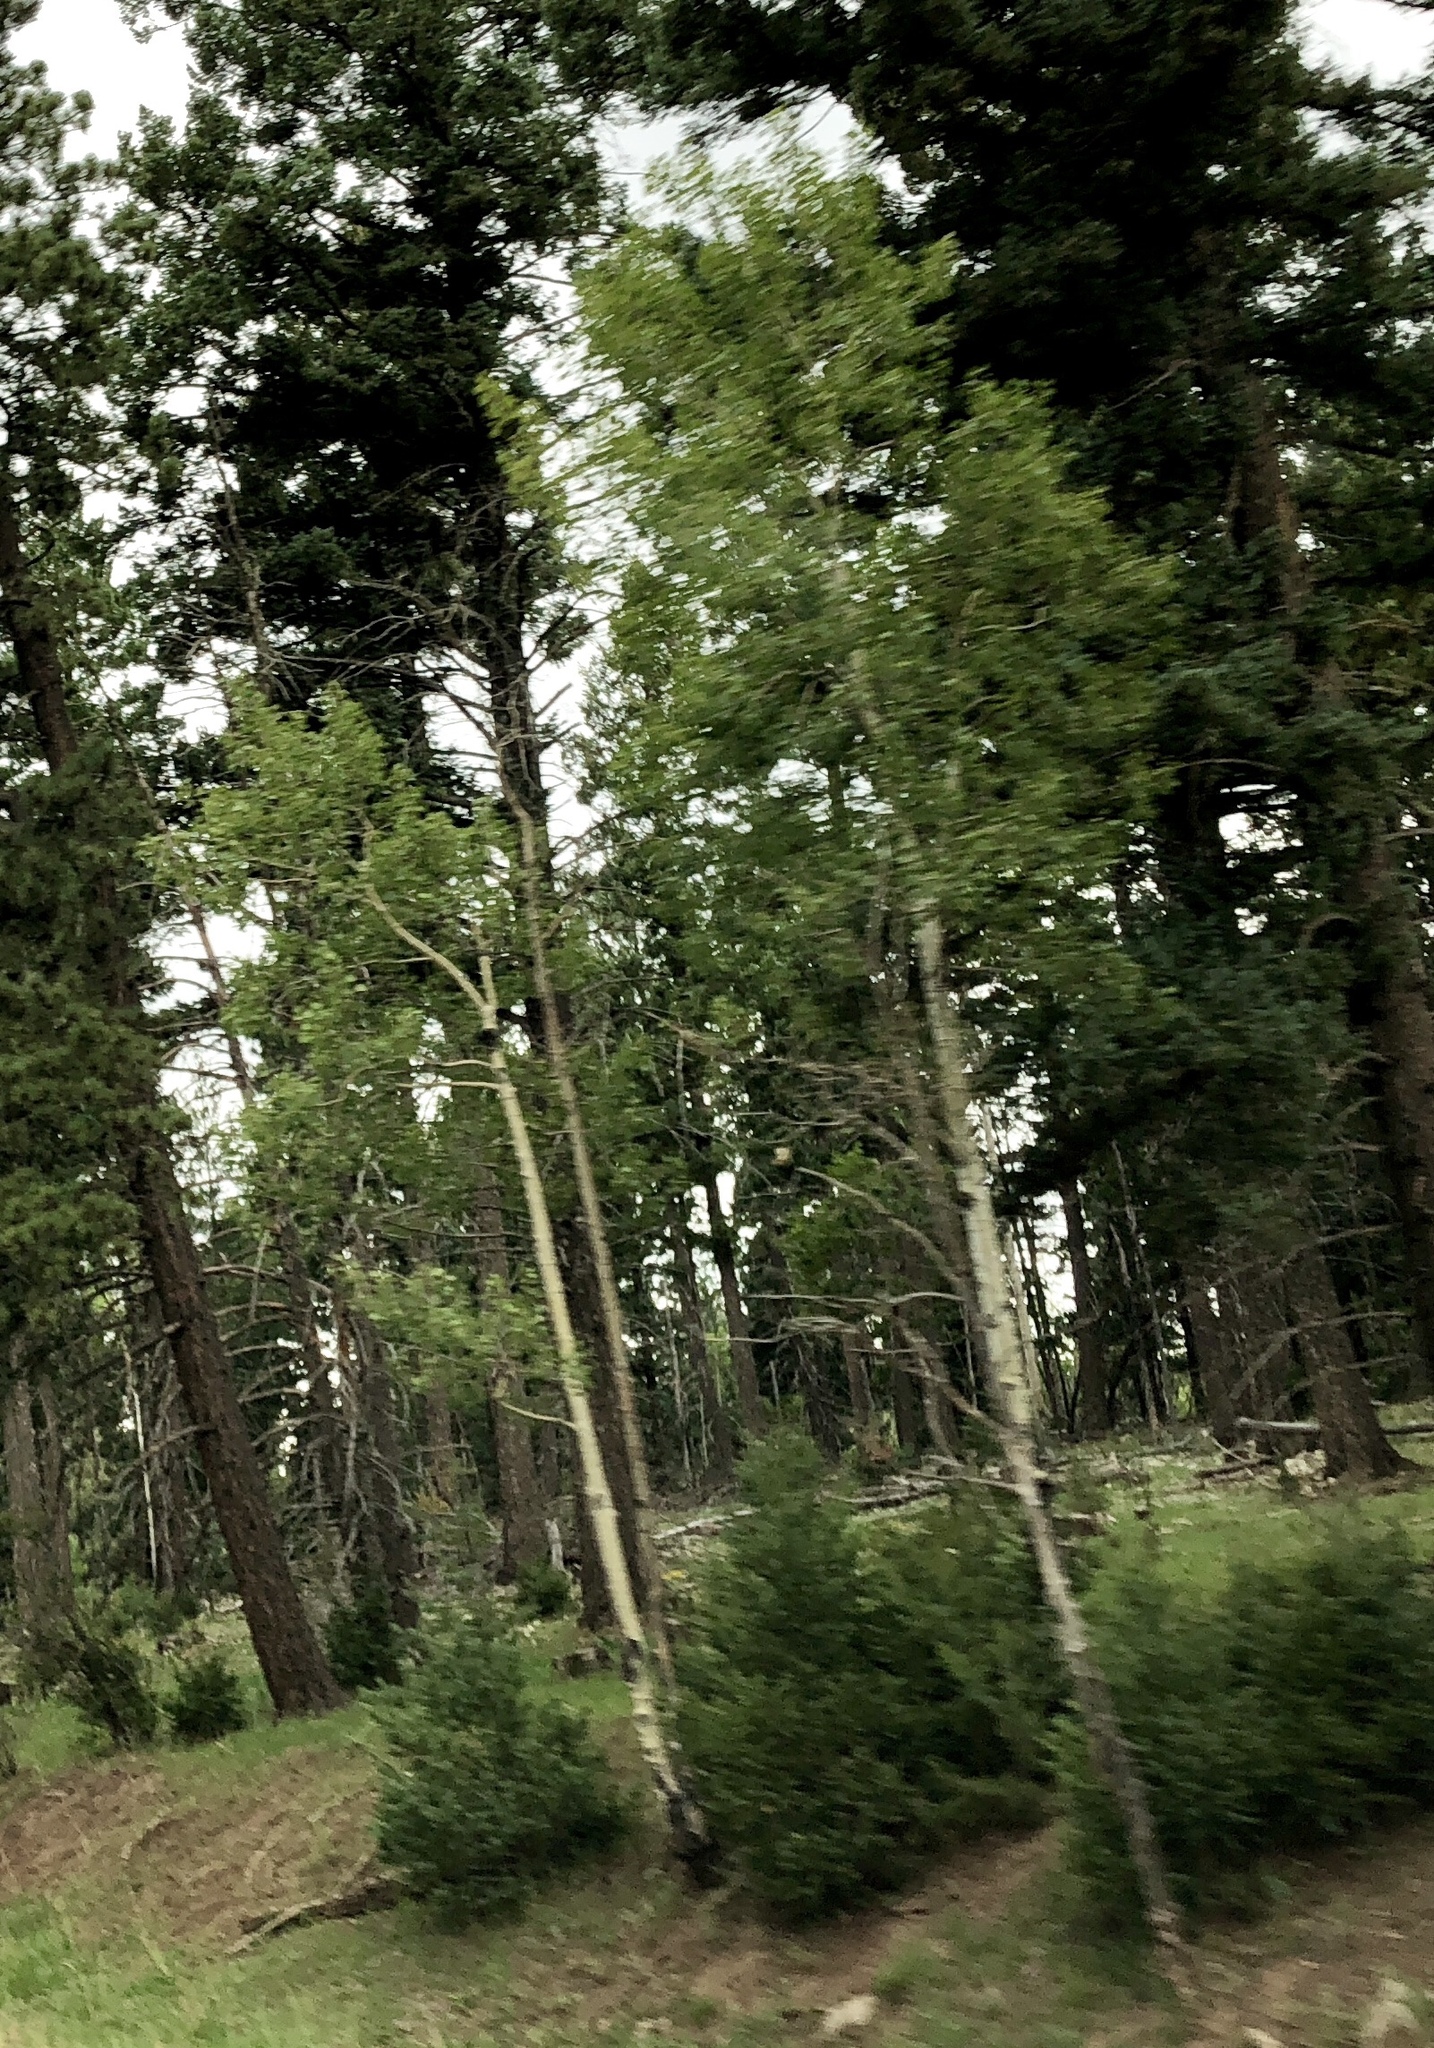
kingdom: Plantae
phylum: Tracheophyta
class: Magnoliopsida
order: Malpighiales
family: Salicaceae
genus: Populus
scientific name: Populus tremuloides
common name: Quaking aspen
